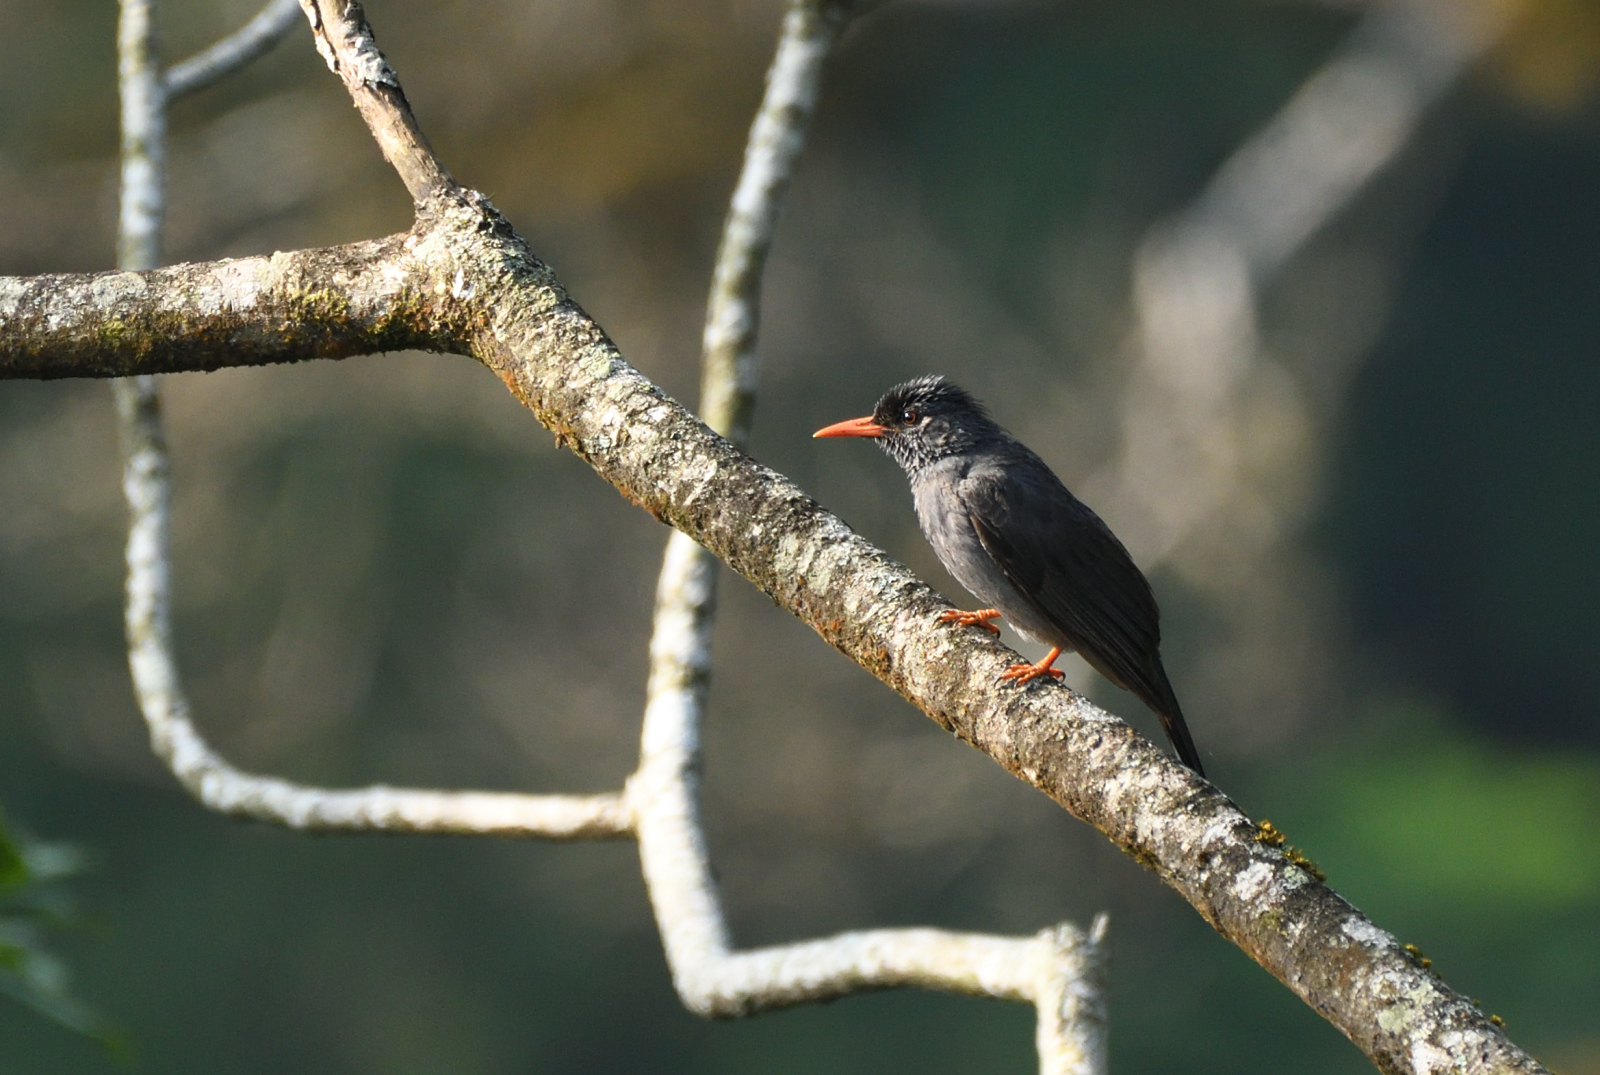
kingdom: Animalia
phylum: Chordata
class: Aves
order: Passeriformes
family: Pycnonotidae
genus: Hypsipetes
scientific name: Hypsipetes ganeesa
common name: Square-tailed bulbul
